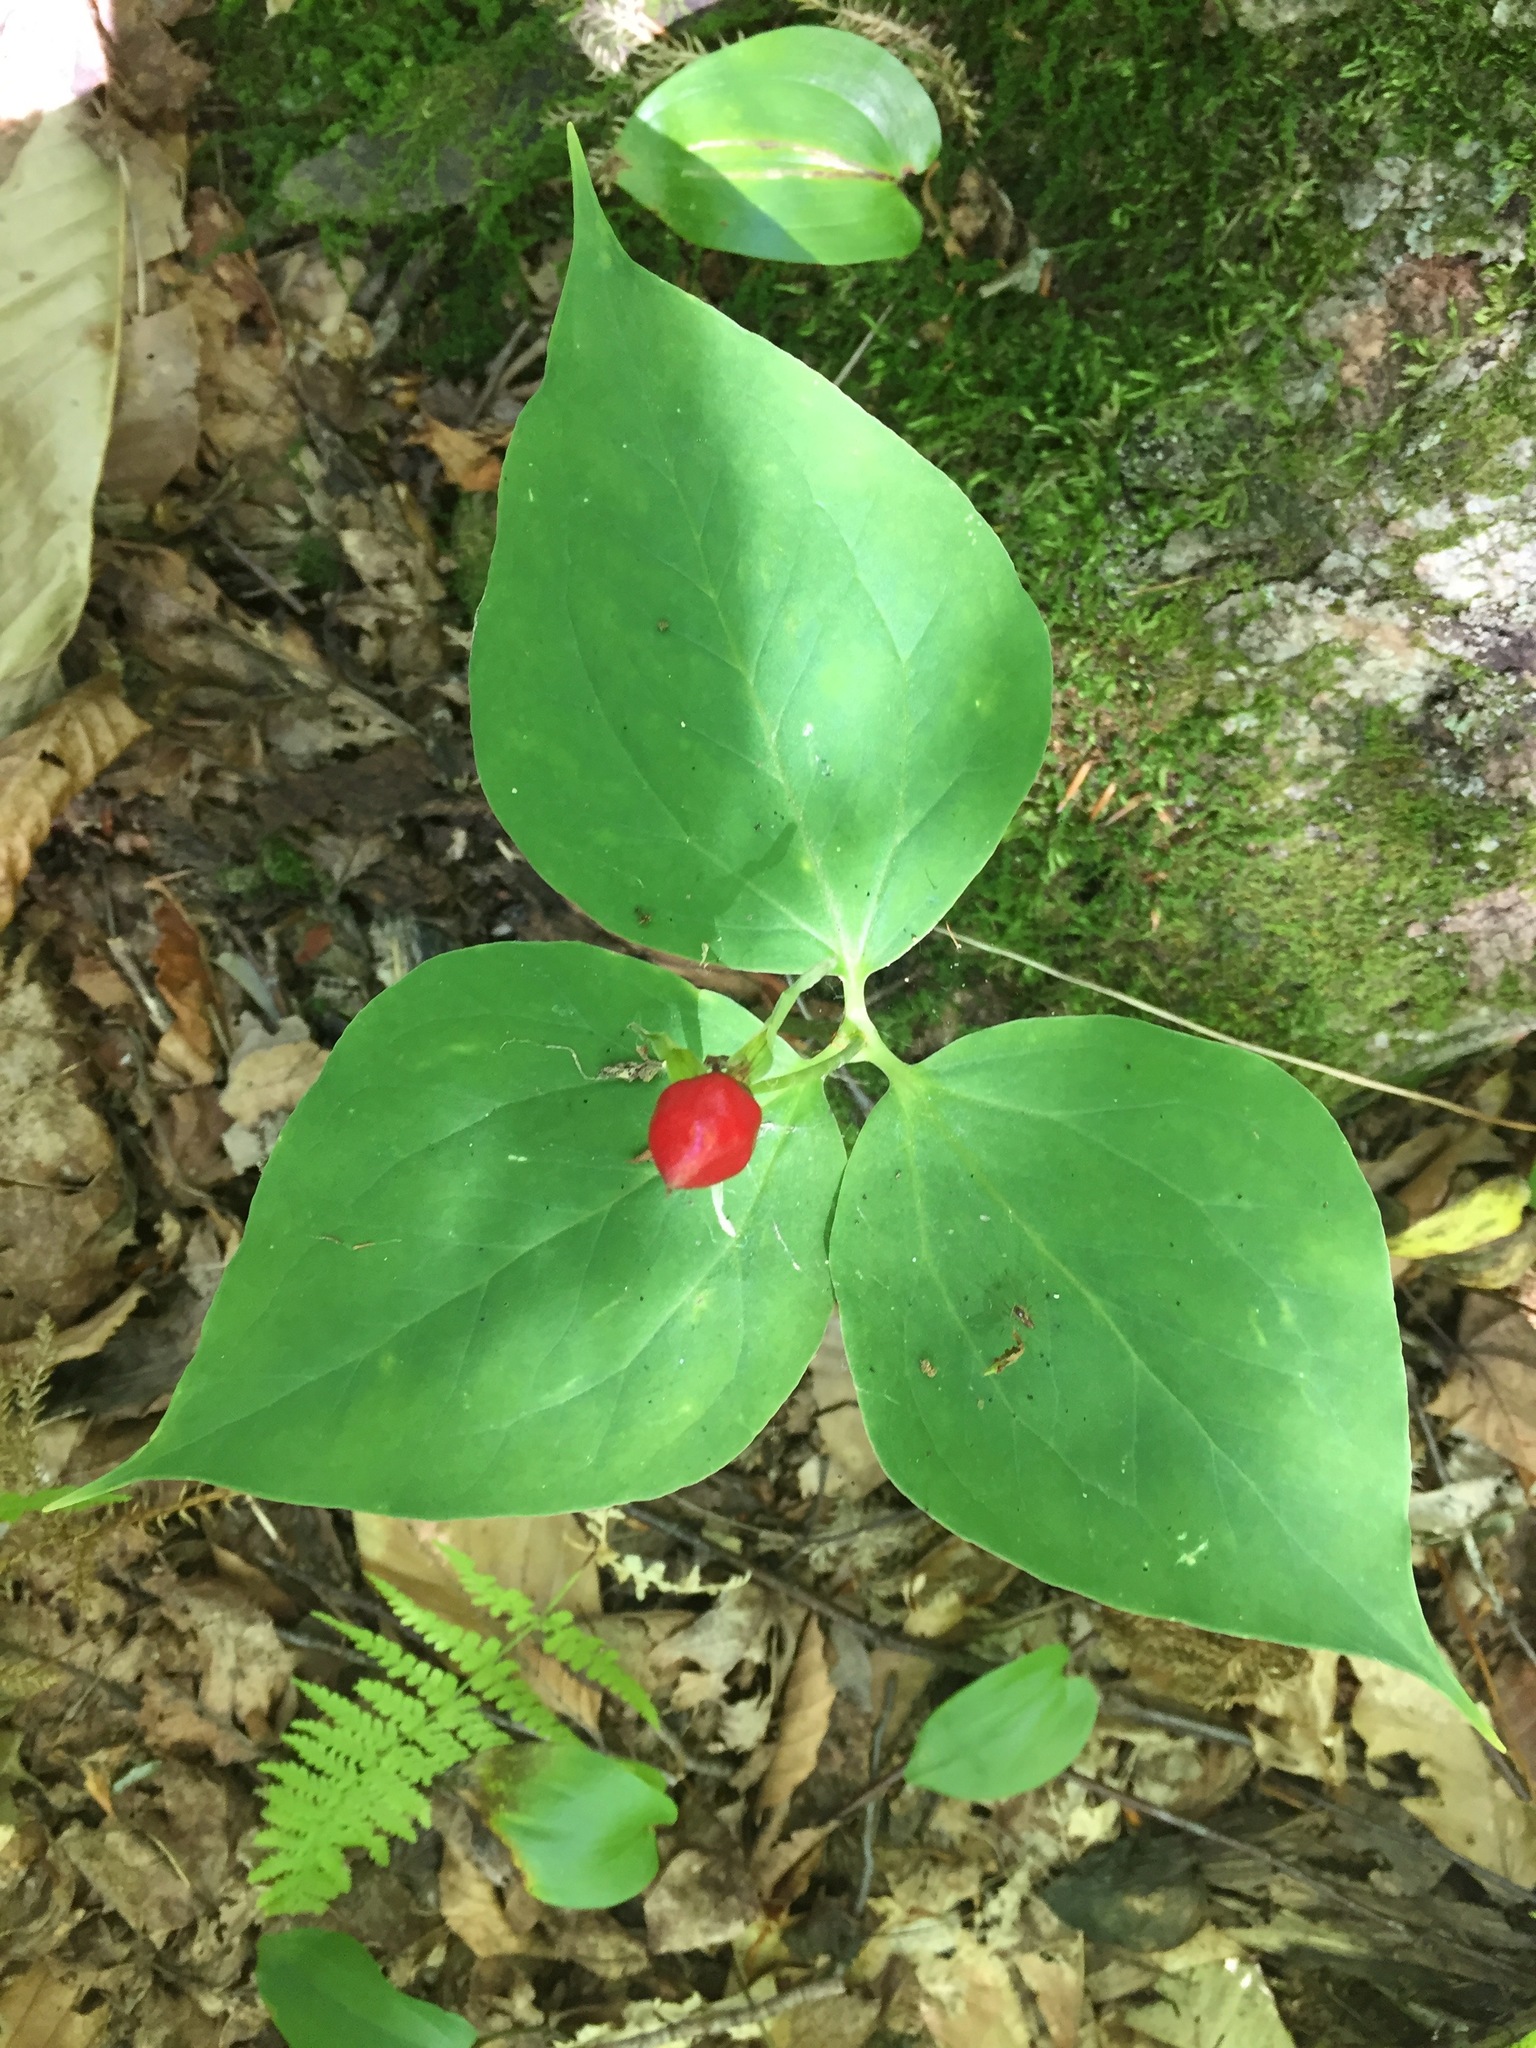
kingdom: Plantae
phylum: Tracheophyta
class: Liliopsida
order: Liliales
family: Melanthiaceae
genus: Trillium
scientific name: Trillium undulatum
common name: Paint trillium
